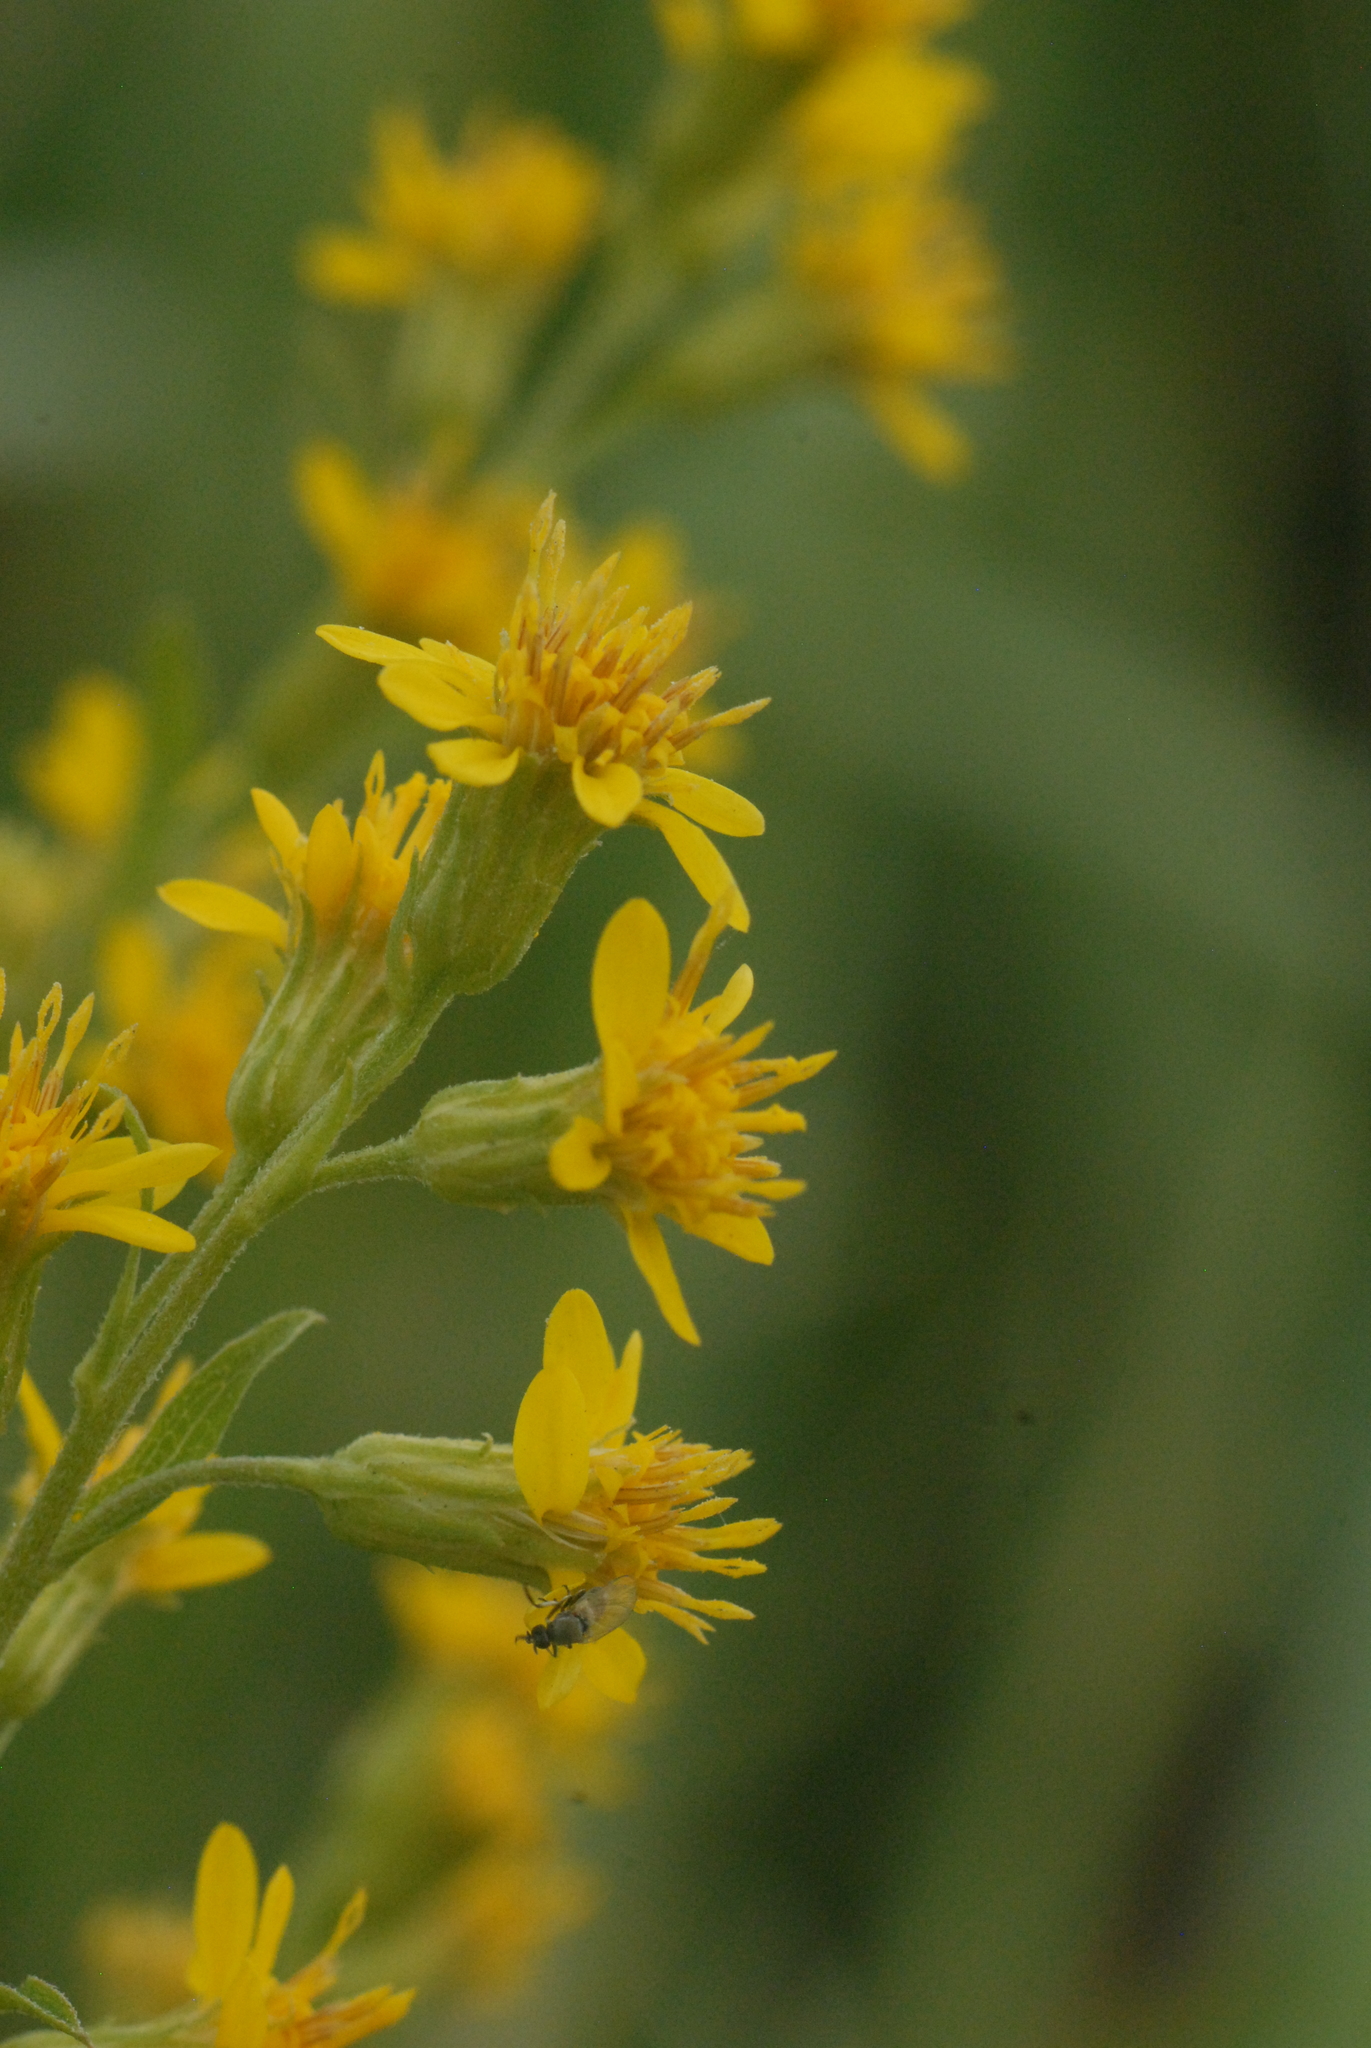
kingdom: Plantae
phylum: Tracheophyta
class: Magnoliopsida
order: Asterales
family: Asteraceae
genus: Solidago
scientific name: Solidago virgaurea
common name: Goldenrod
